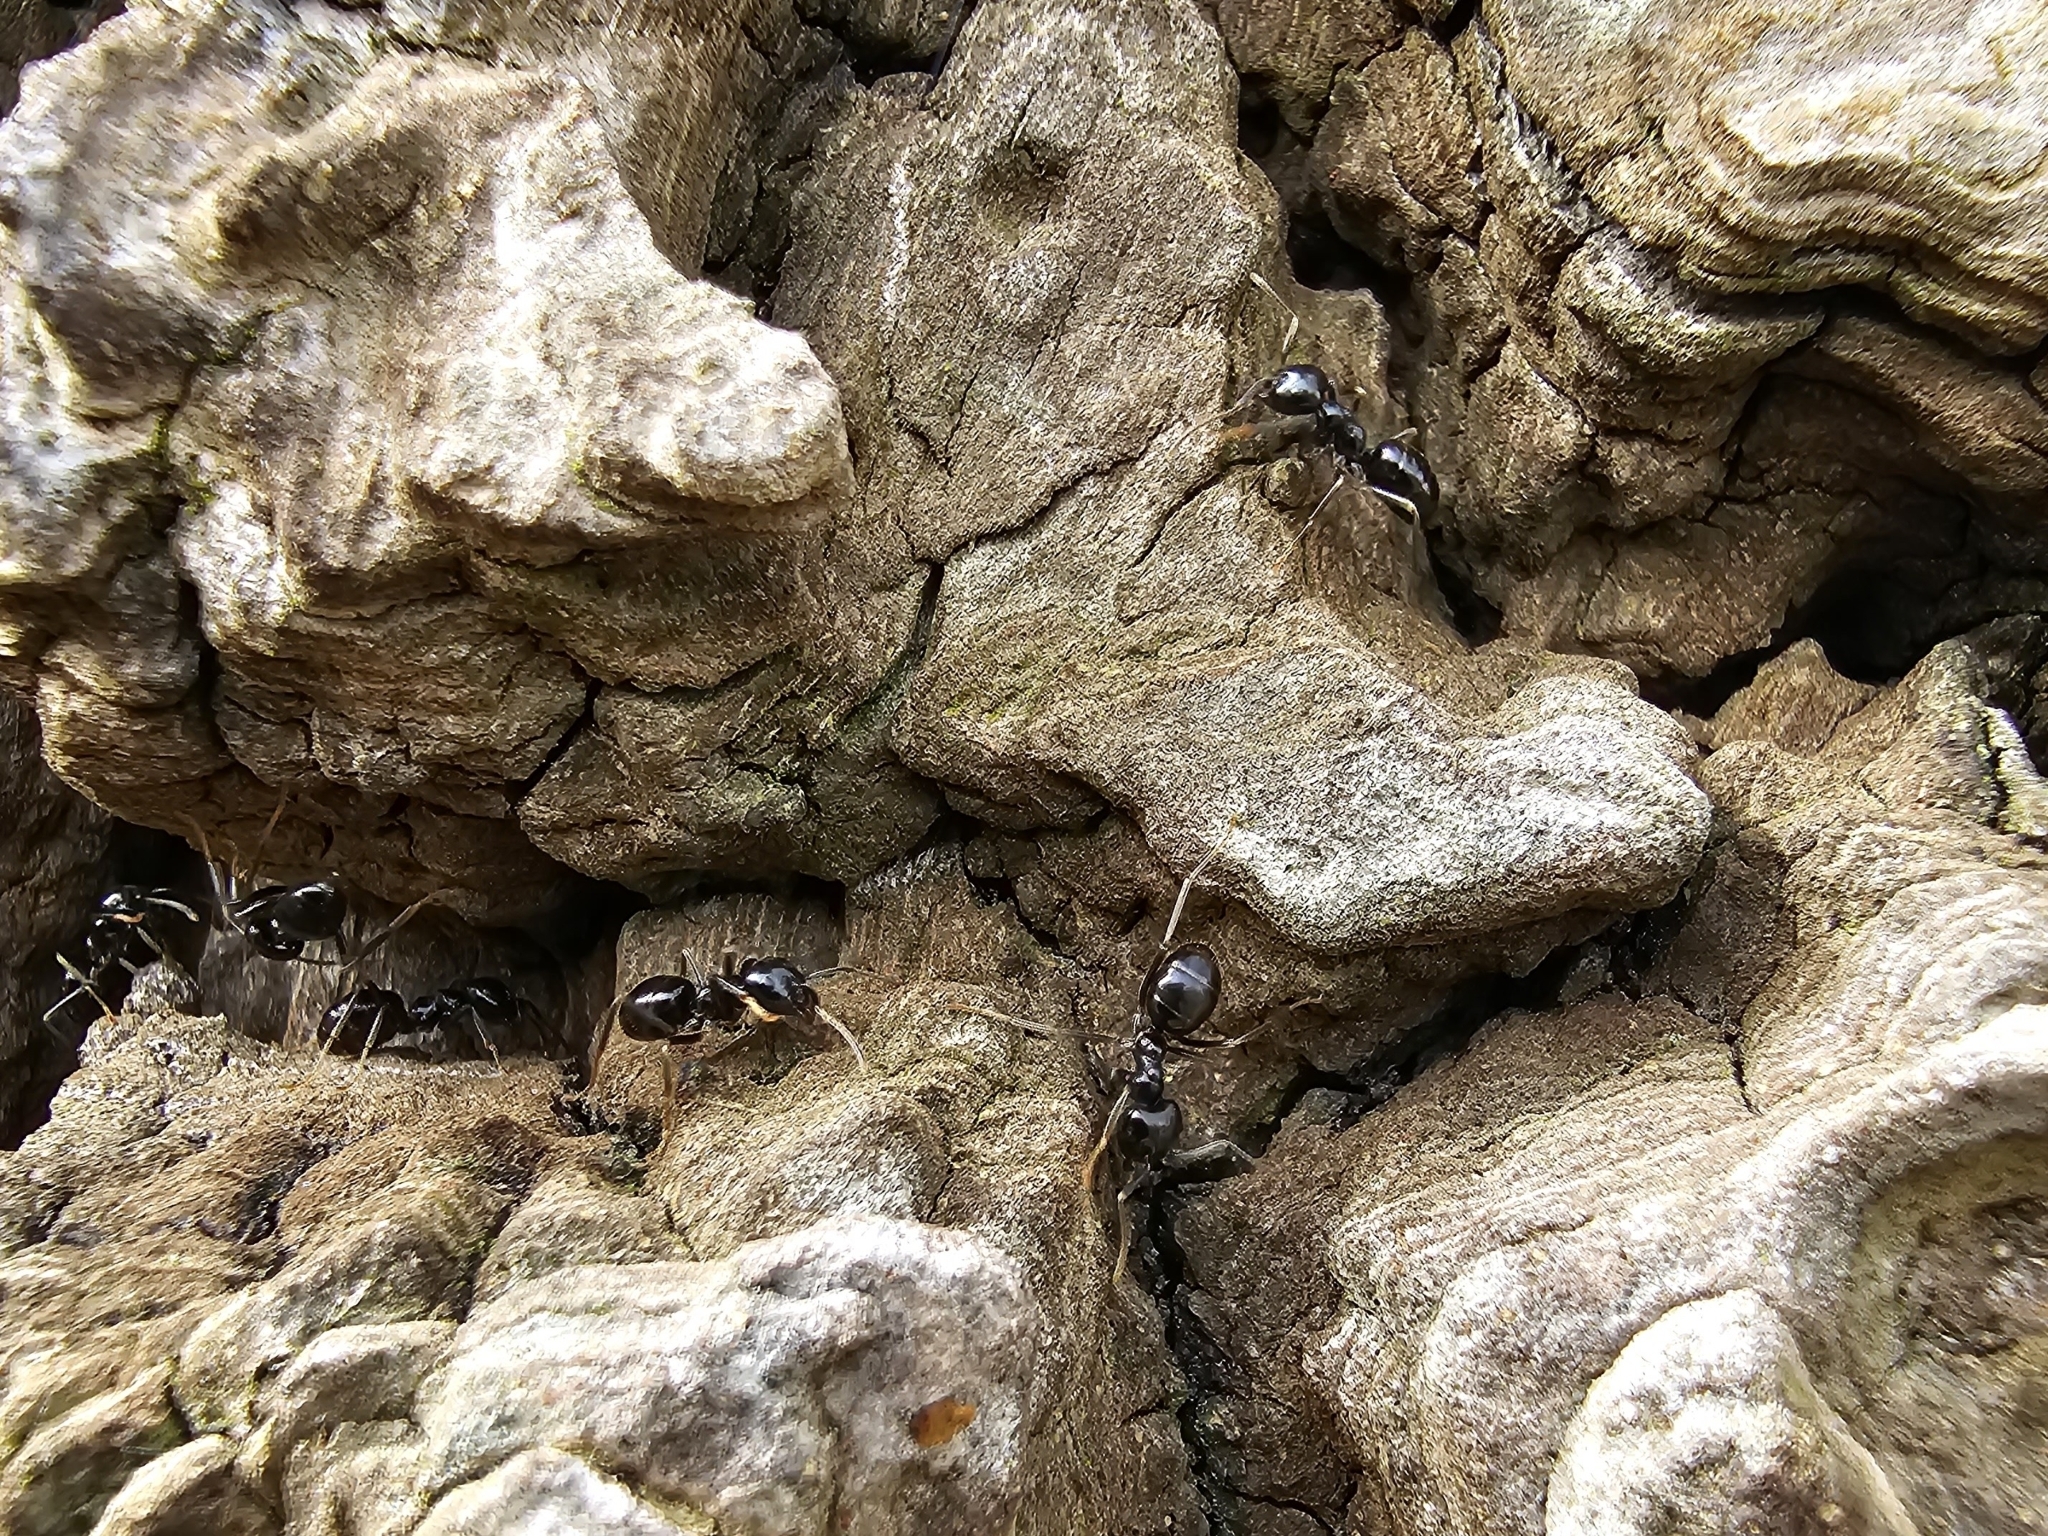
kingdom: Animalia
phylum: Arthropoda
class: Insecta
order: Hymenoptera
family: Formicidae
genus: Lasius
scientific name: Lasius fuliginosus
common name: Jet ant
